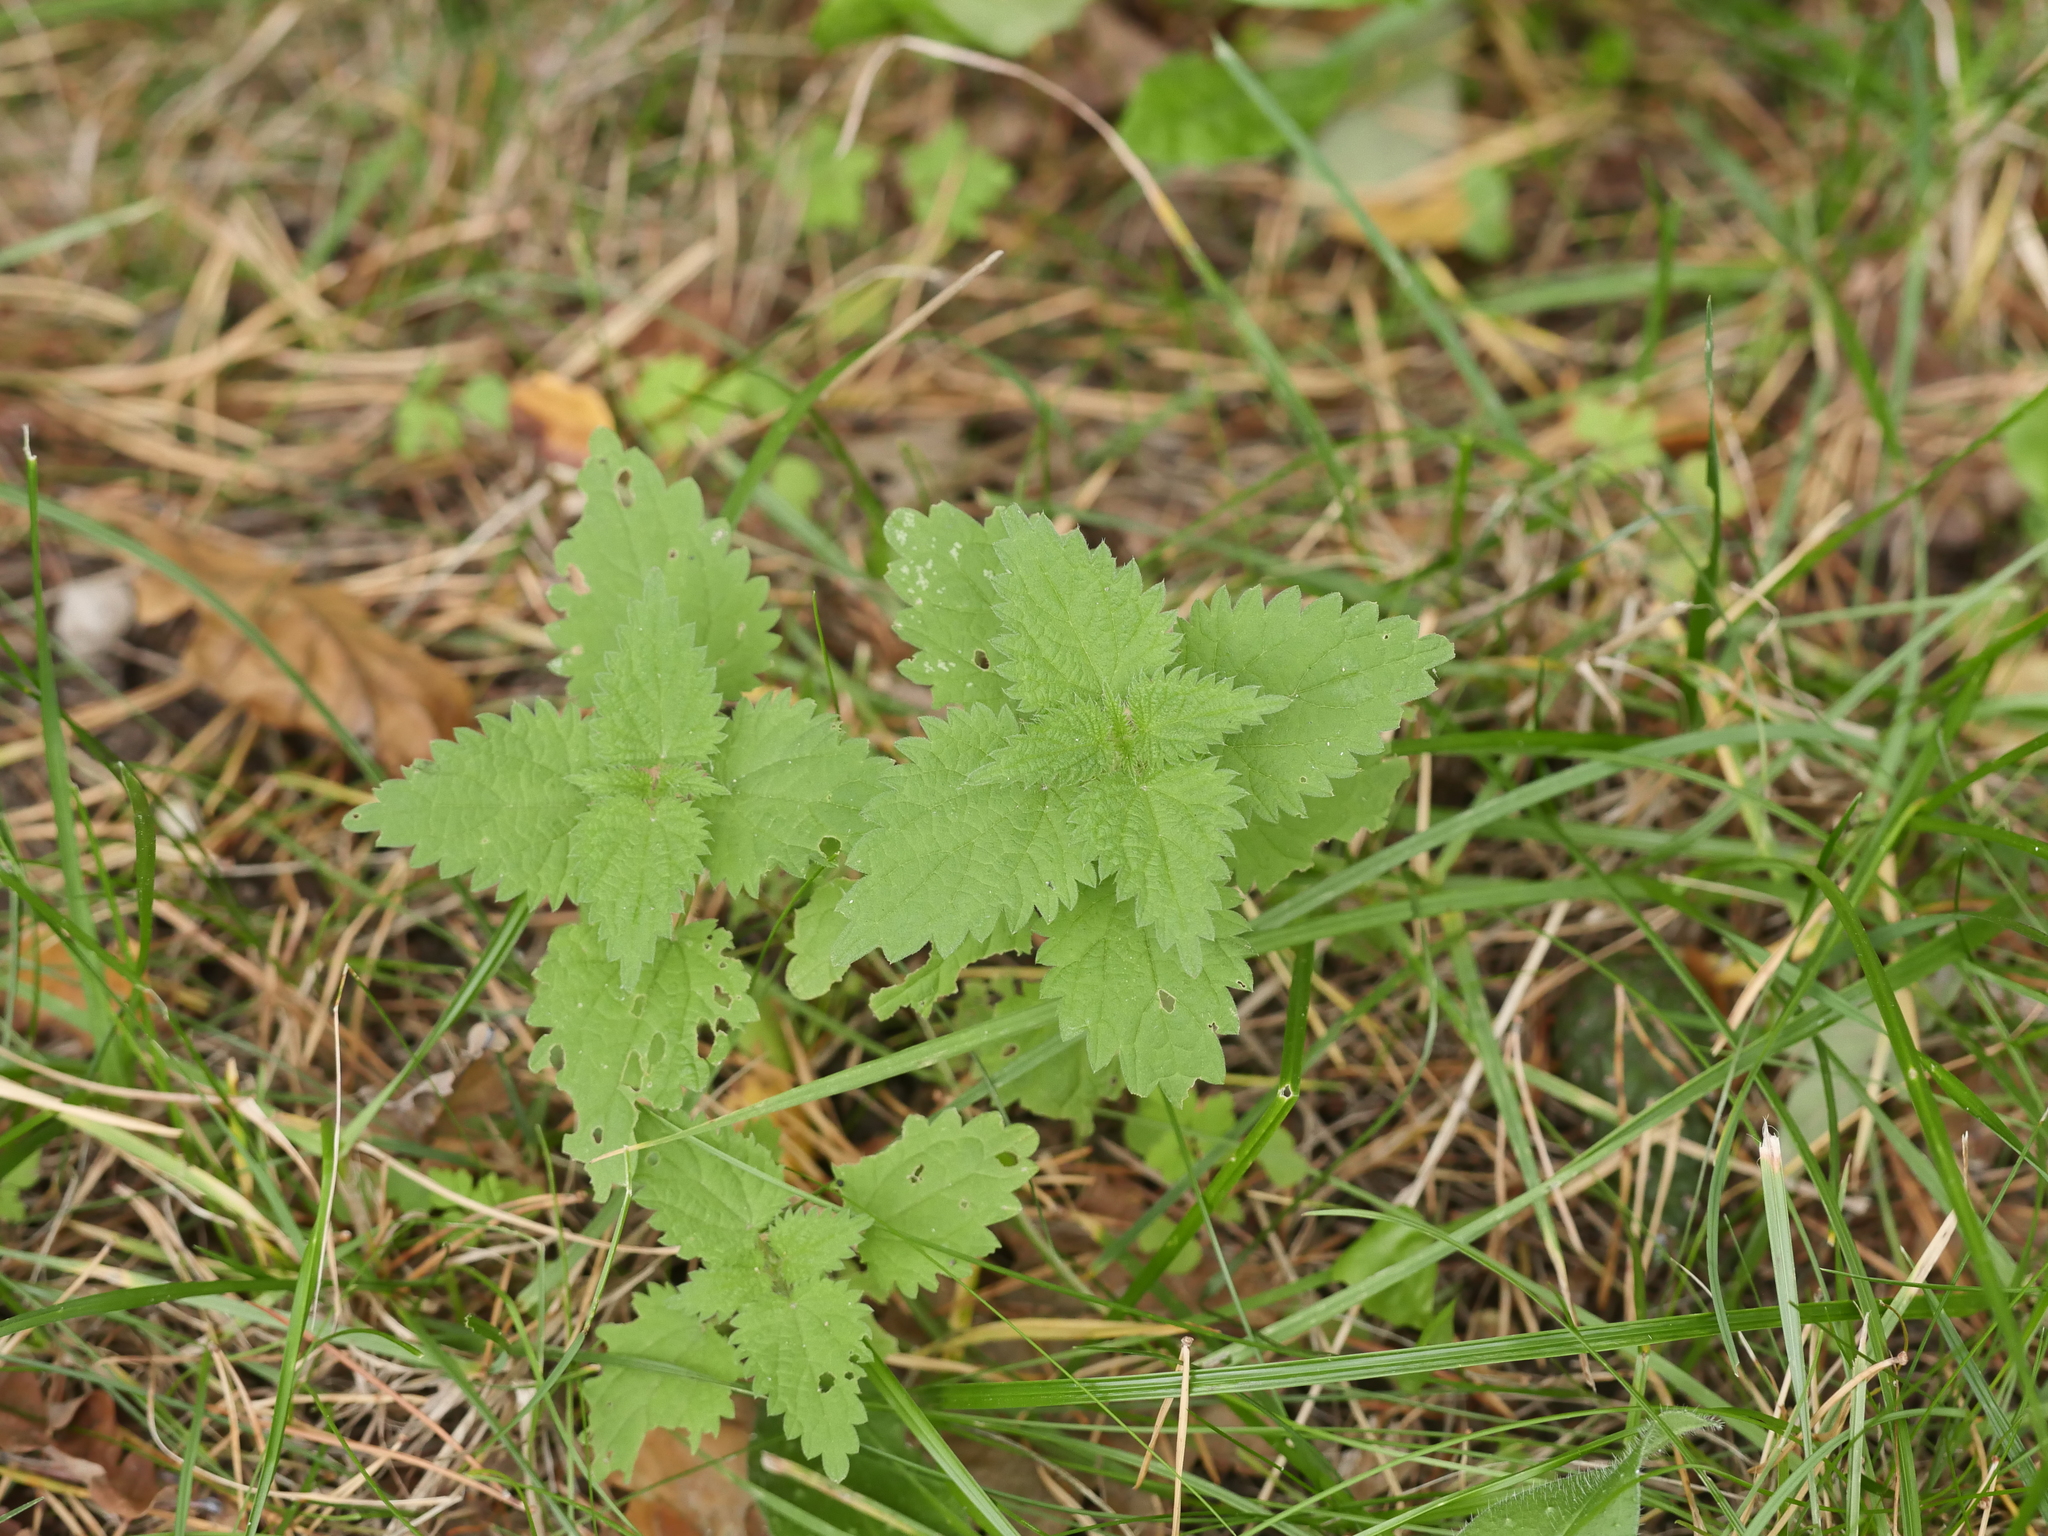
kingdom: Plantae
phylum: Tracheophyta
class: Magnoliopsida
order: Rosales
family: Urticaceae
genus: Urtica
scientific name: Urtica dioica
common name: Common nettle
